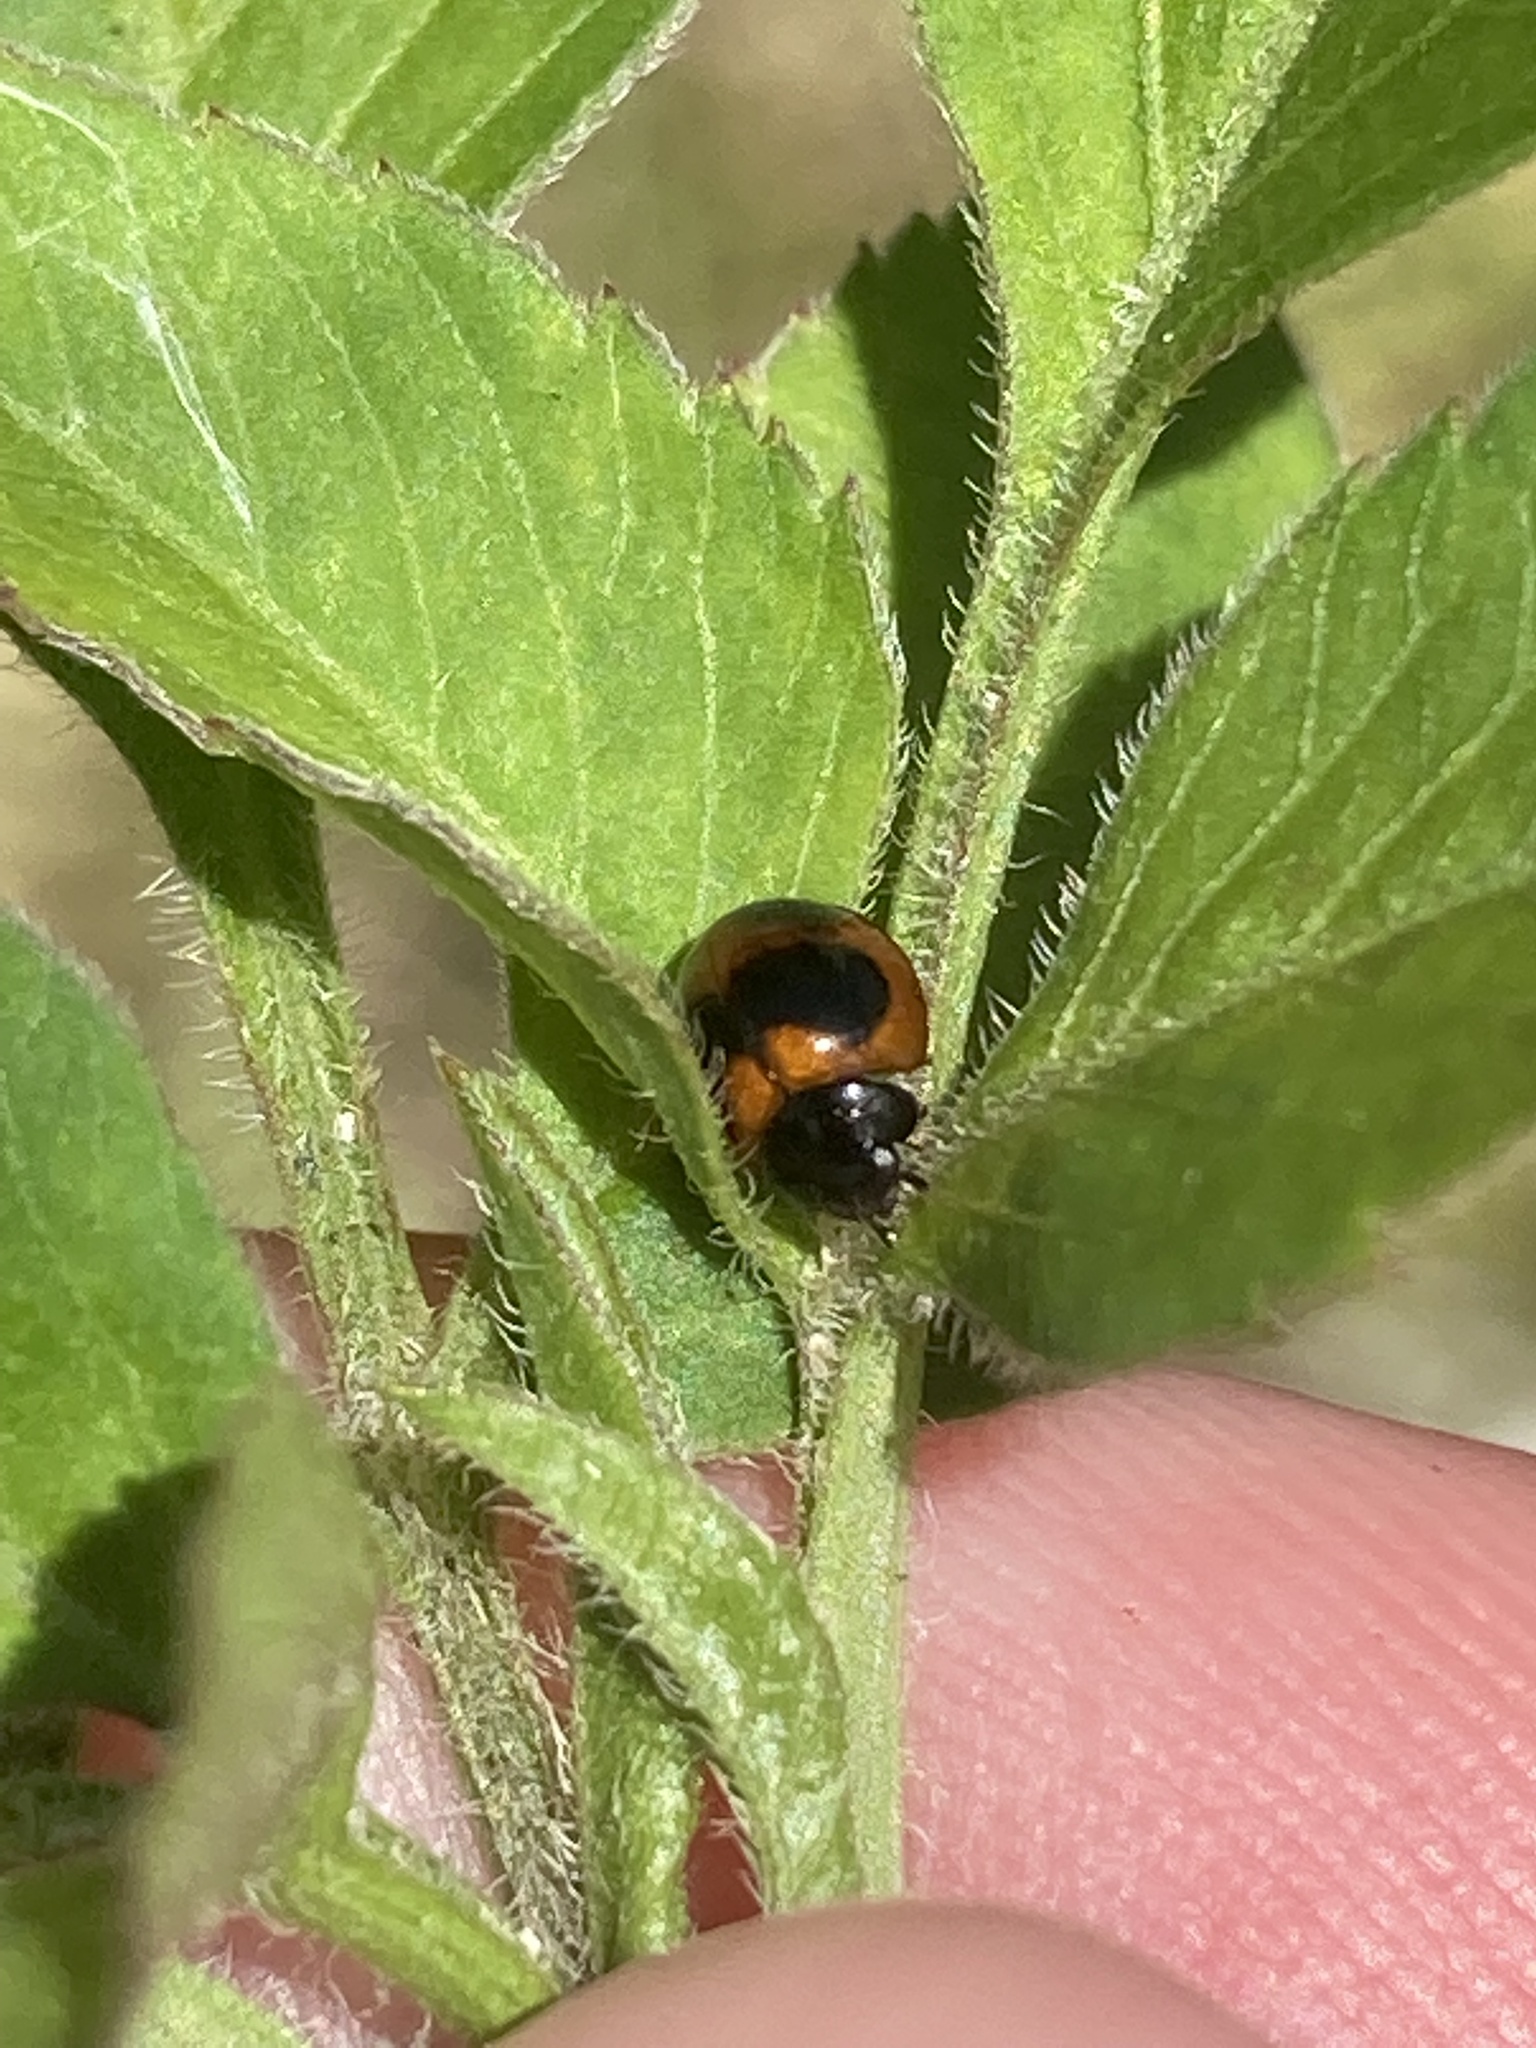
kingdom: Animalia
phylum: Arthropoda
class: Insecta
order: Coleoptera
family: Coccinellidae
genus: Exochomus
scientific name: Exochomus childreni
